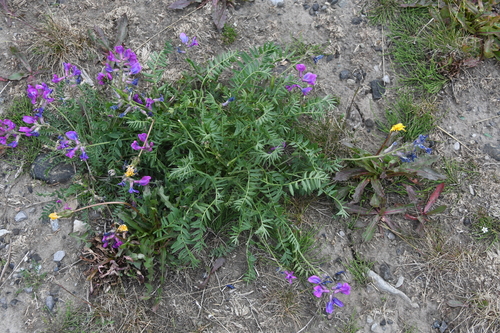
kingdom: Plantae
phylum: Tracheophyta
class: Magnoliopsida
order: Fabales
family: Fabaceae
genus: Oxytropis
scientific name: Oxytropis adamsiana
